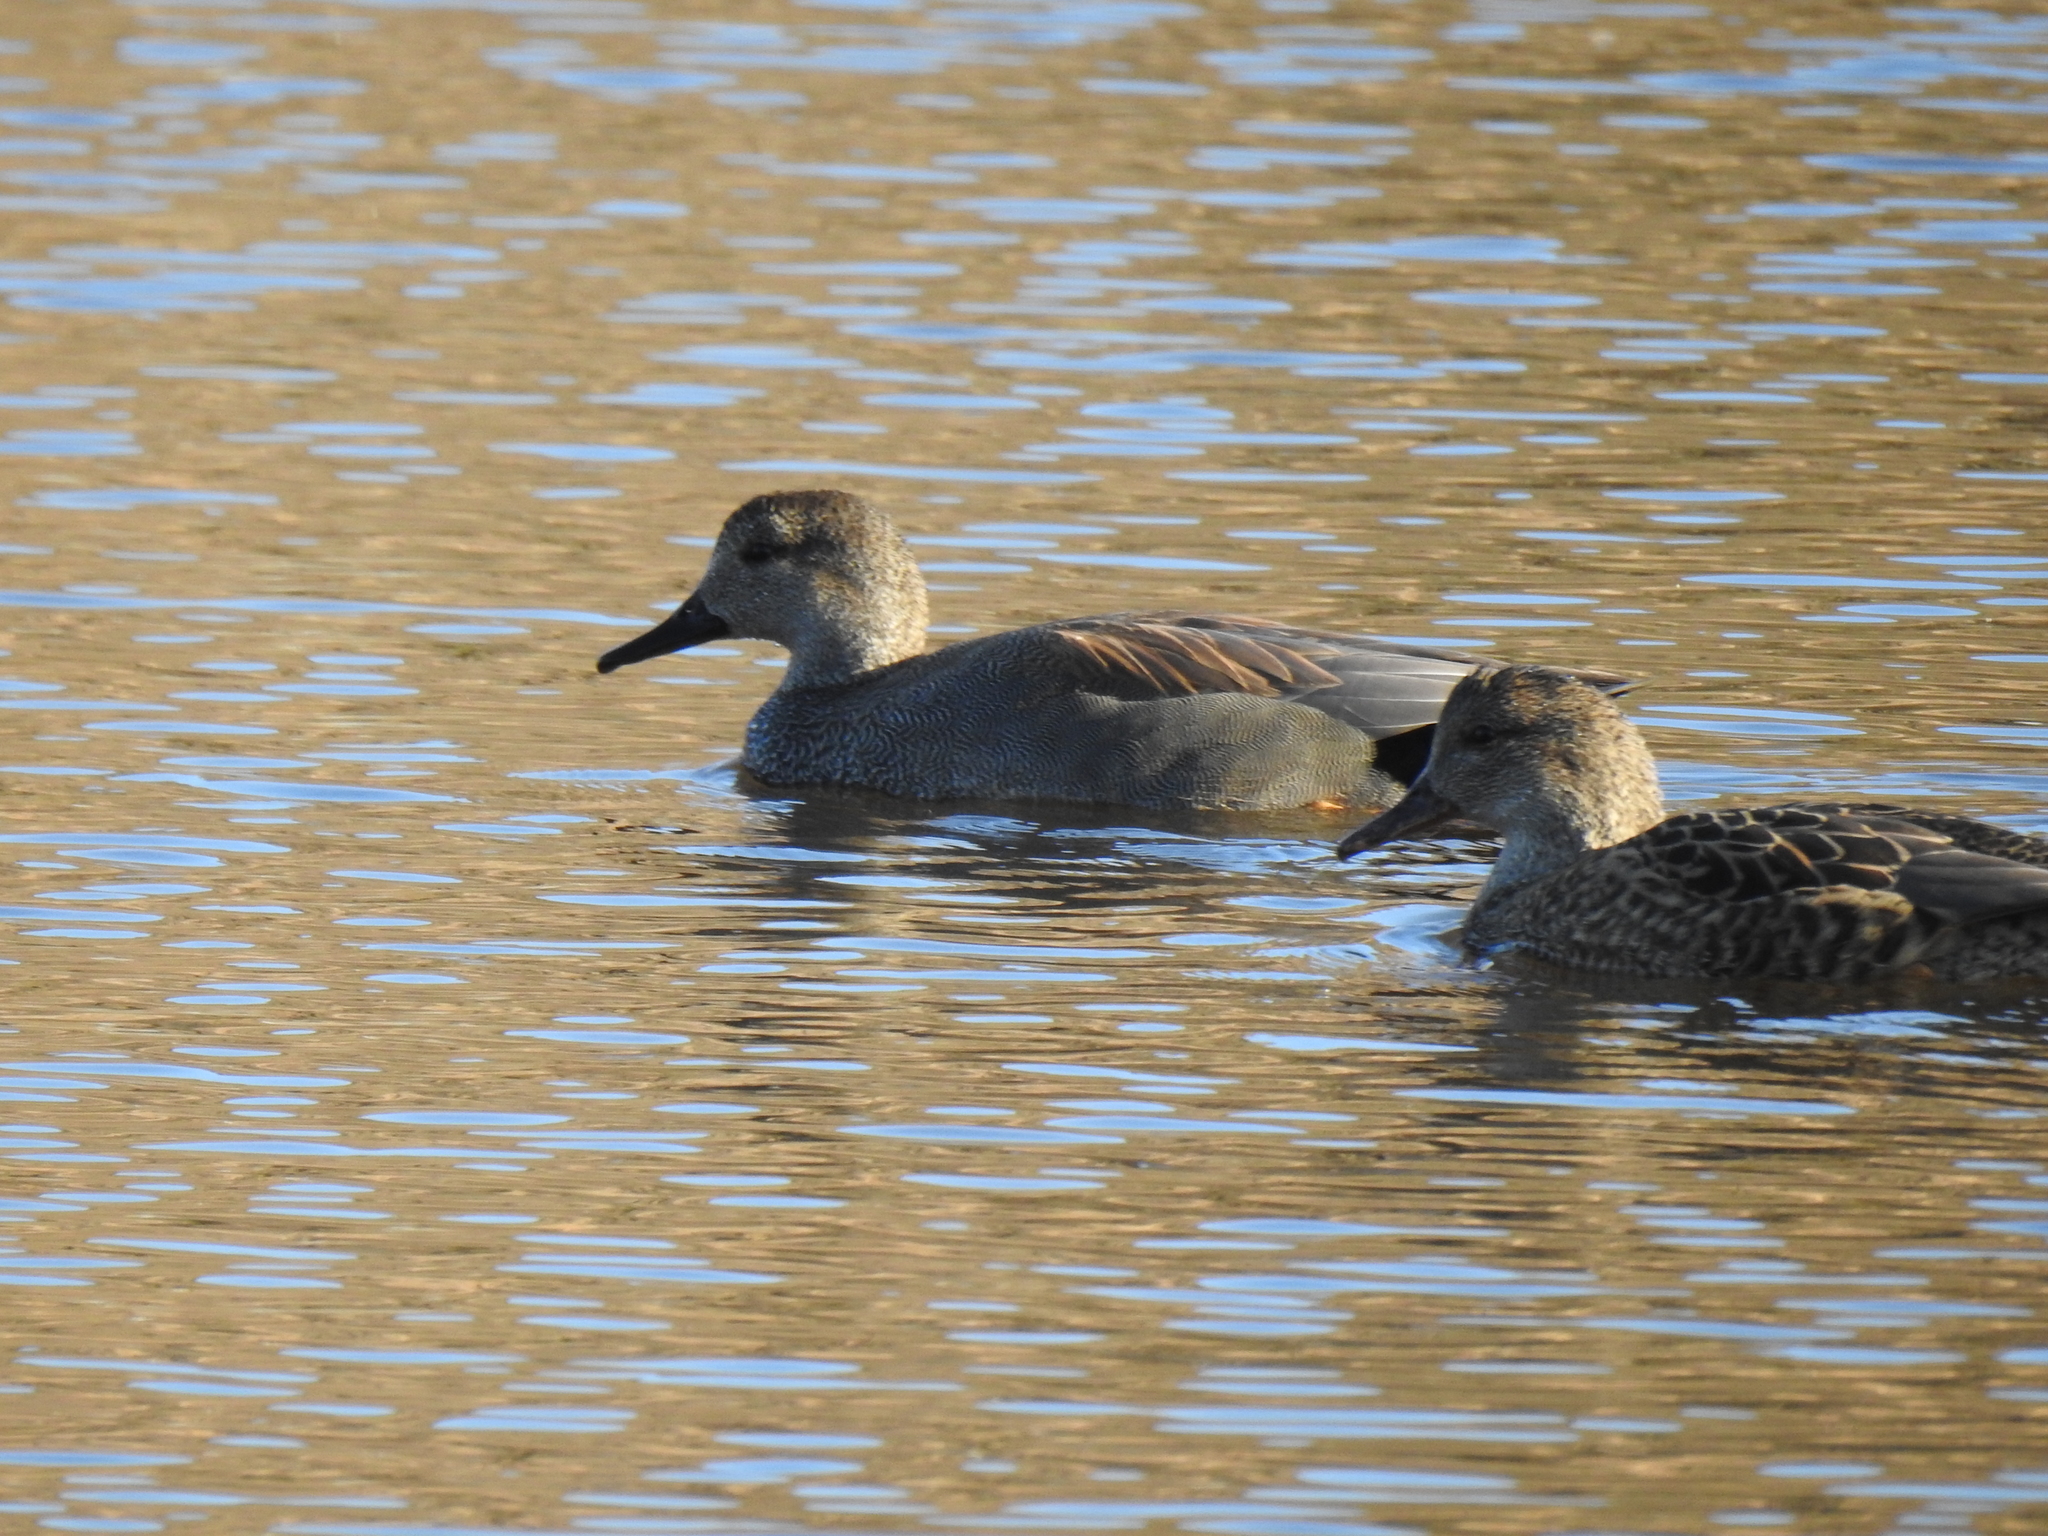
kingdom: Animalia
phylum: Chordata
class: Aves
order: Anseriformes
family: Anatidae
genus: Mareca
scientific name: Mareca strepera
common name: Gadwall
